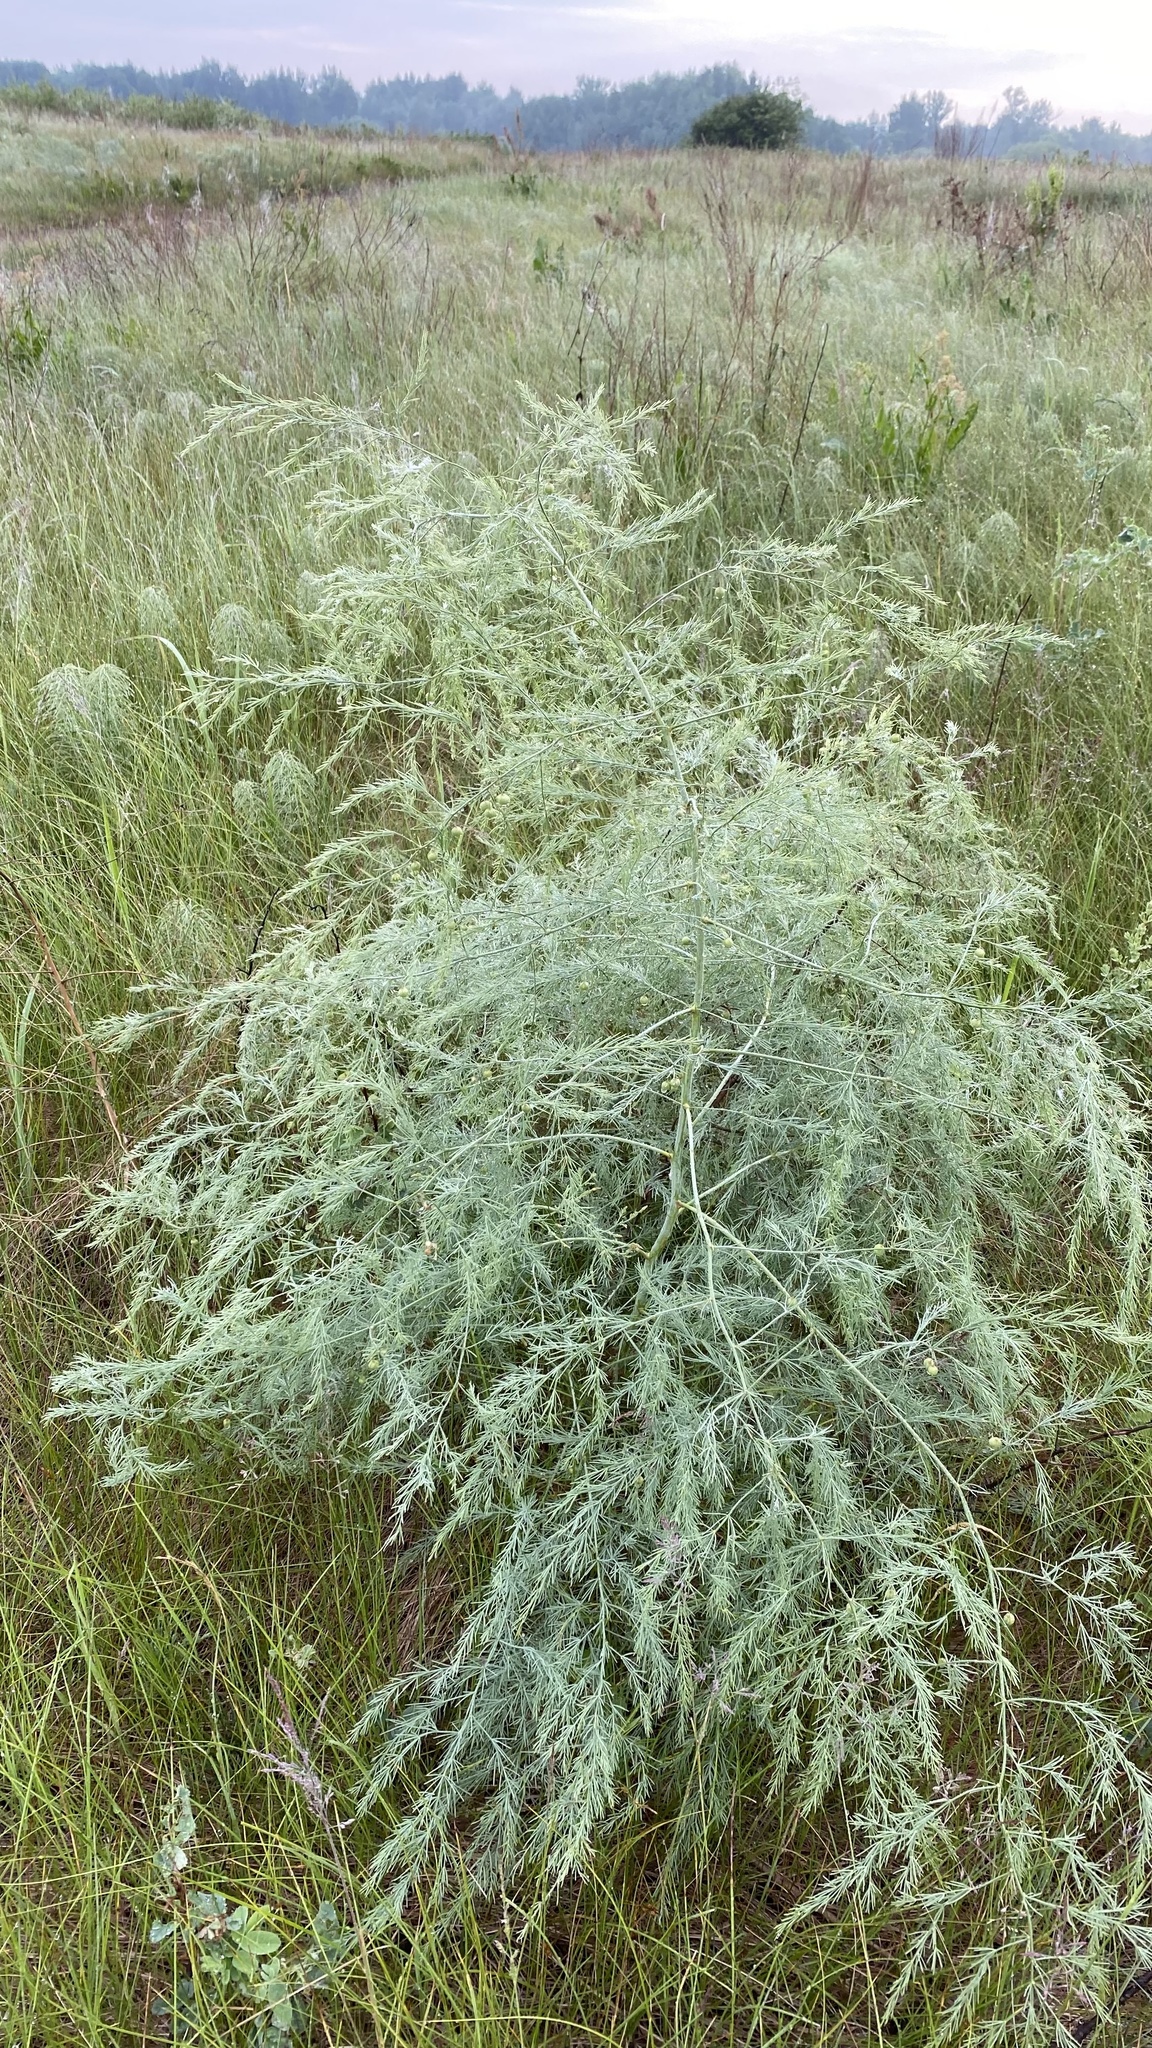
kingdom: Plantae
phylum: Tracheophyta
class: Liliopsida
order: Asparagales
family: Asparagaceae
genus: Asparagus
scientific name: Asparagus officinalis
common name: Garden asparagus
